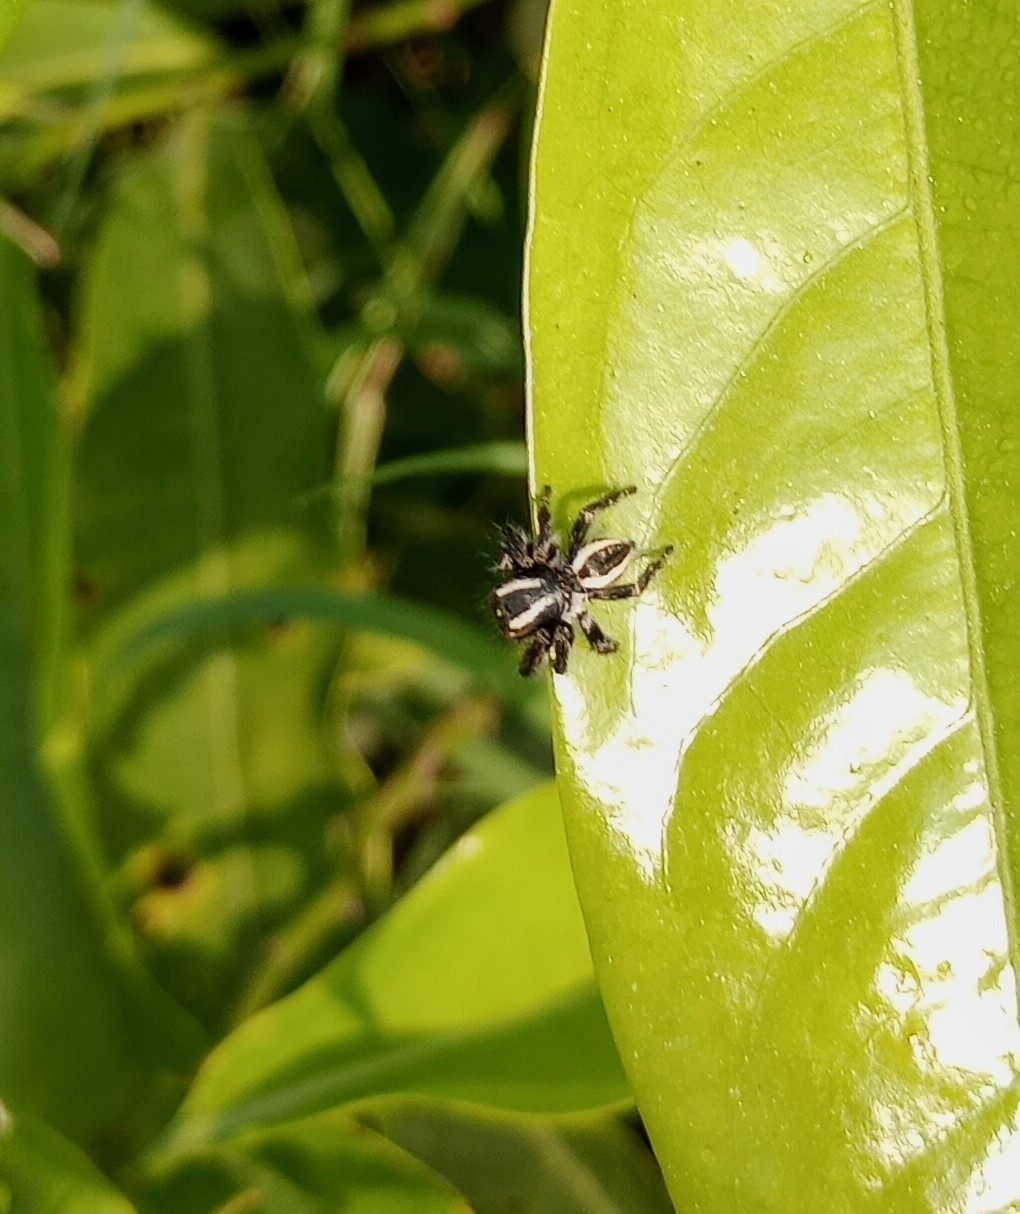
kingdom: Animalia
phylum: Arthropoda
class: Arachnida
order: Araneae
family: Salticidae
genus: Carrhotus
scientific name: Carrhotus viduus
